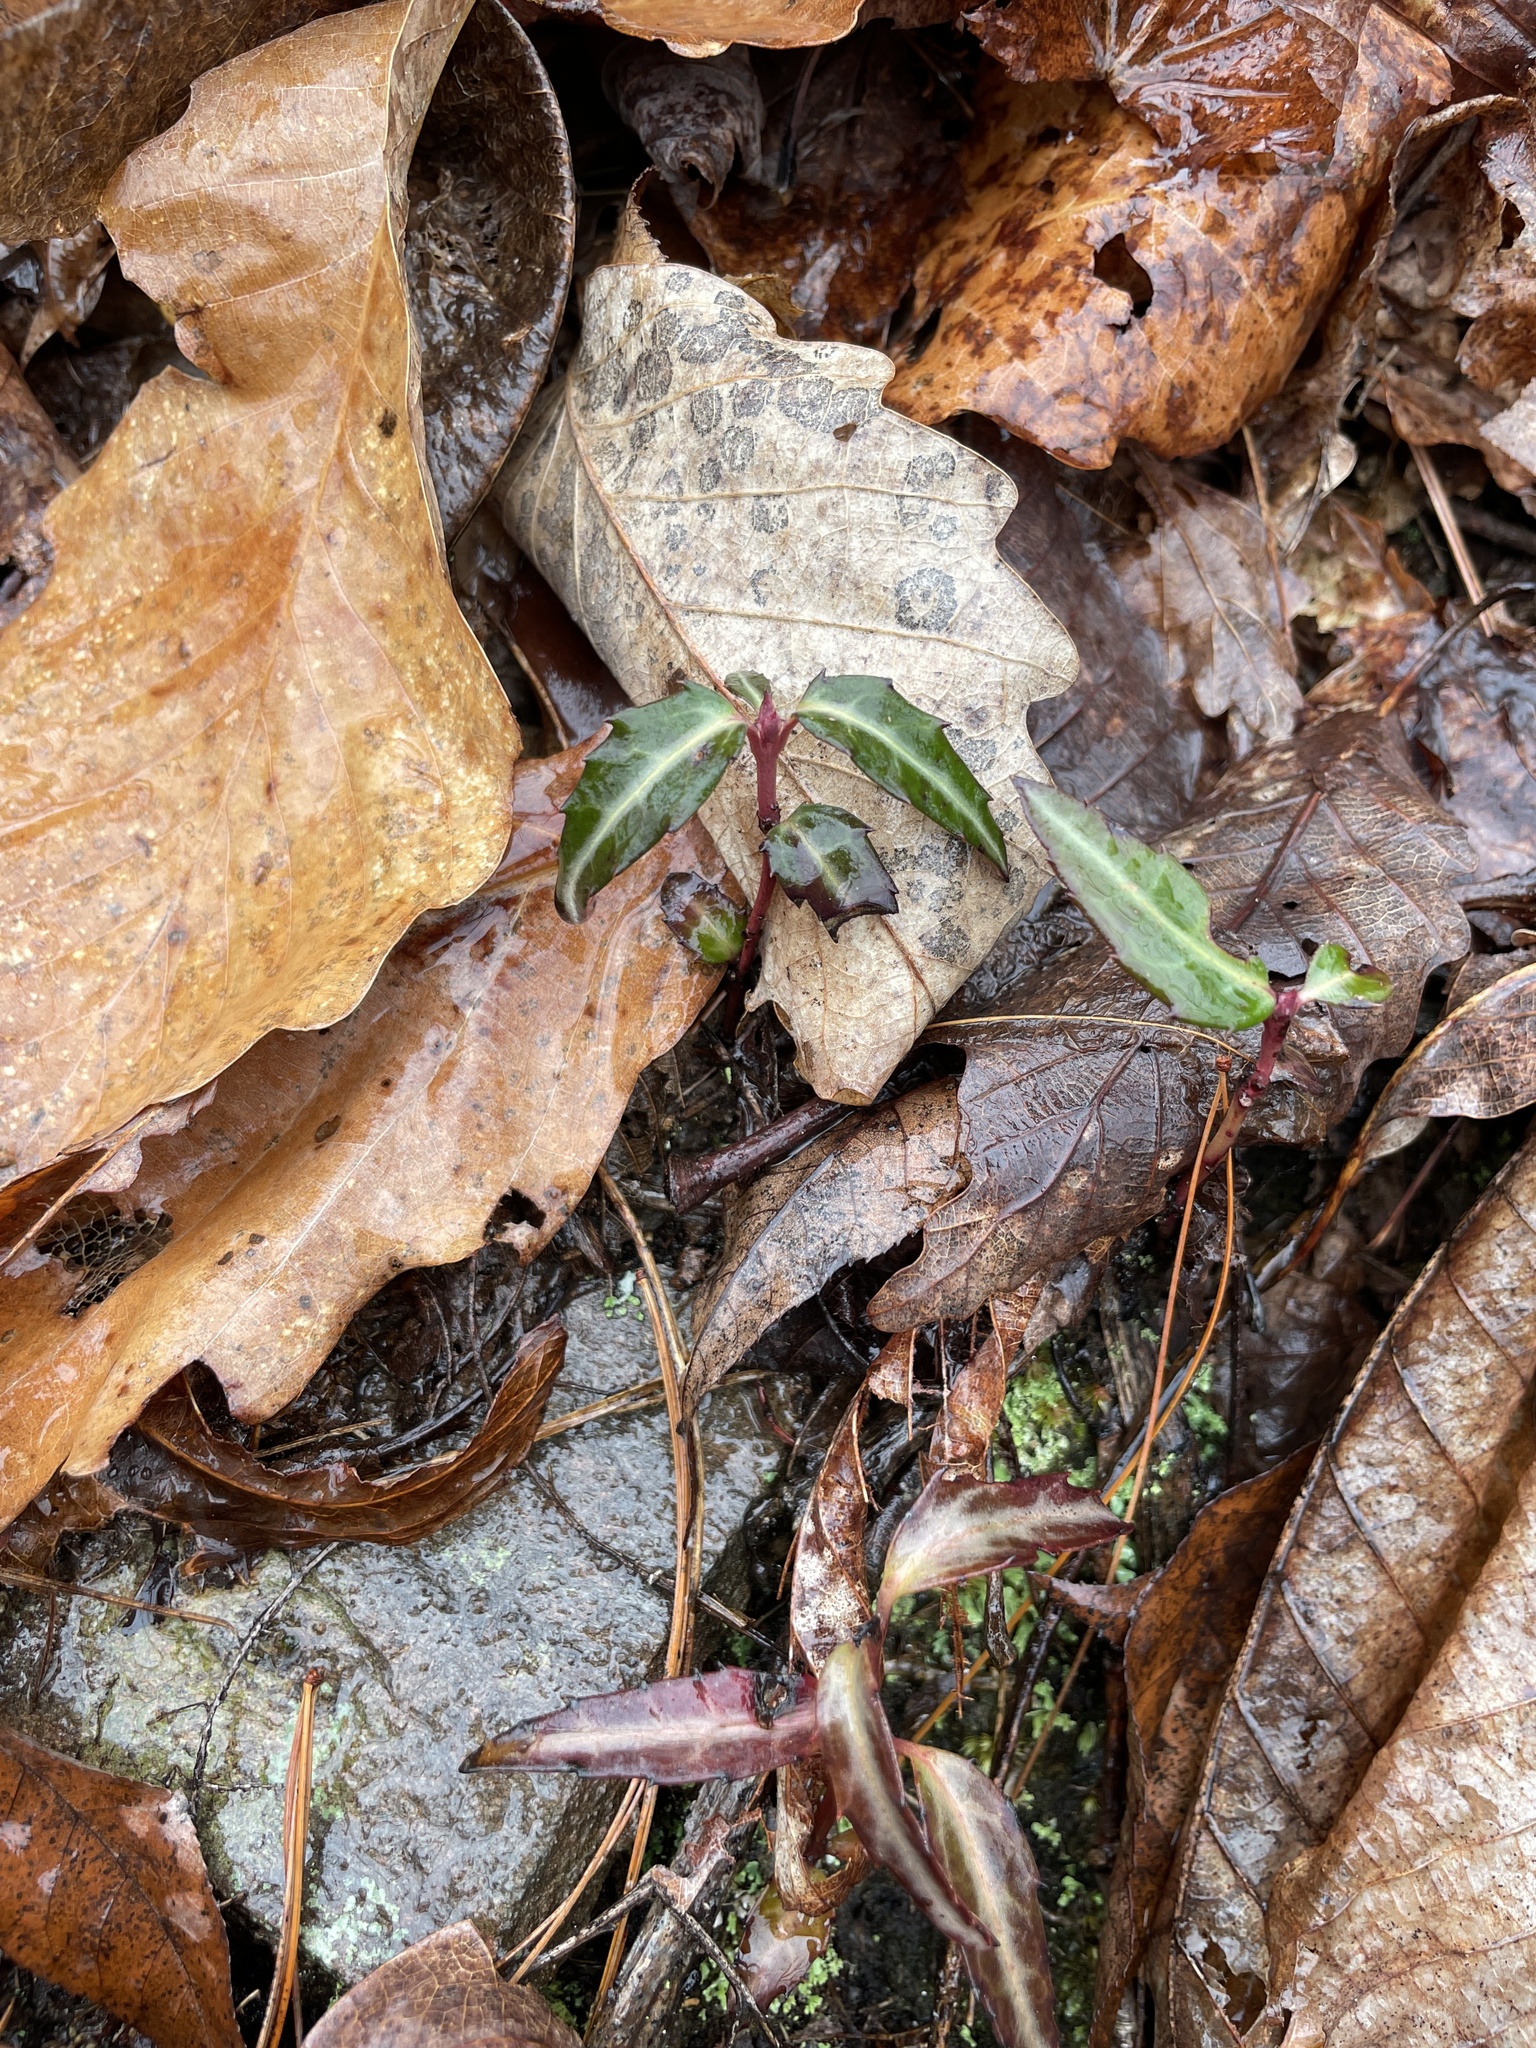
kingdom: Plantae
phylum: Tracheophyta
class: Magnoliopsida
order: Ericales
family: Ericaceae
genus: Chimaphila
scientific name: Chimaphila maculata
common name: Spotted pipsissewa
